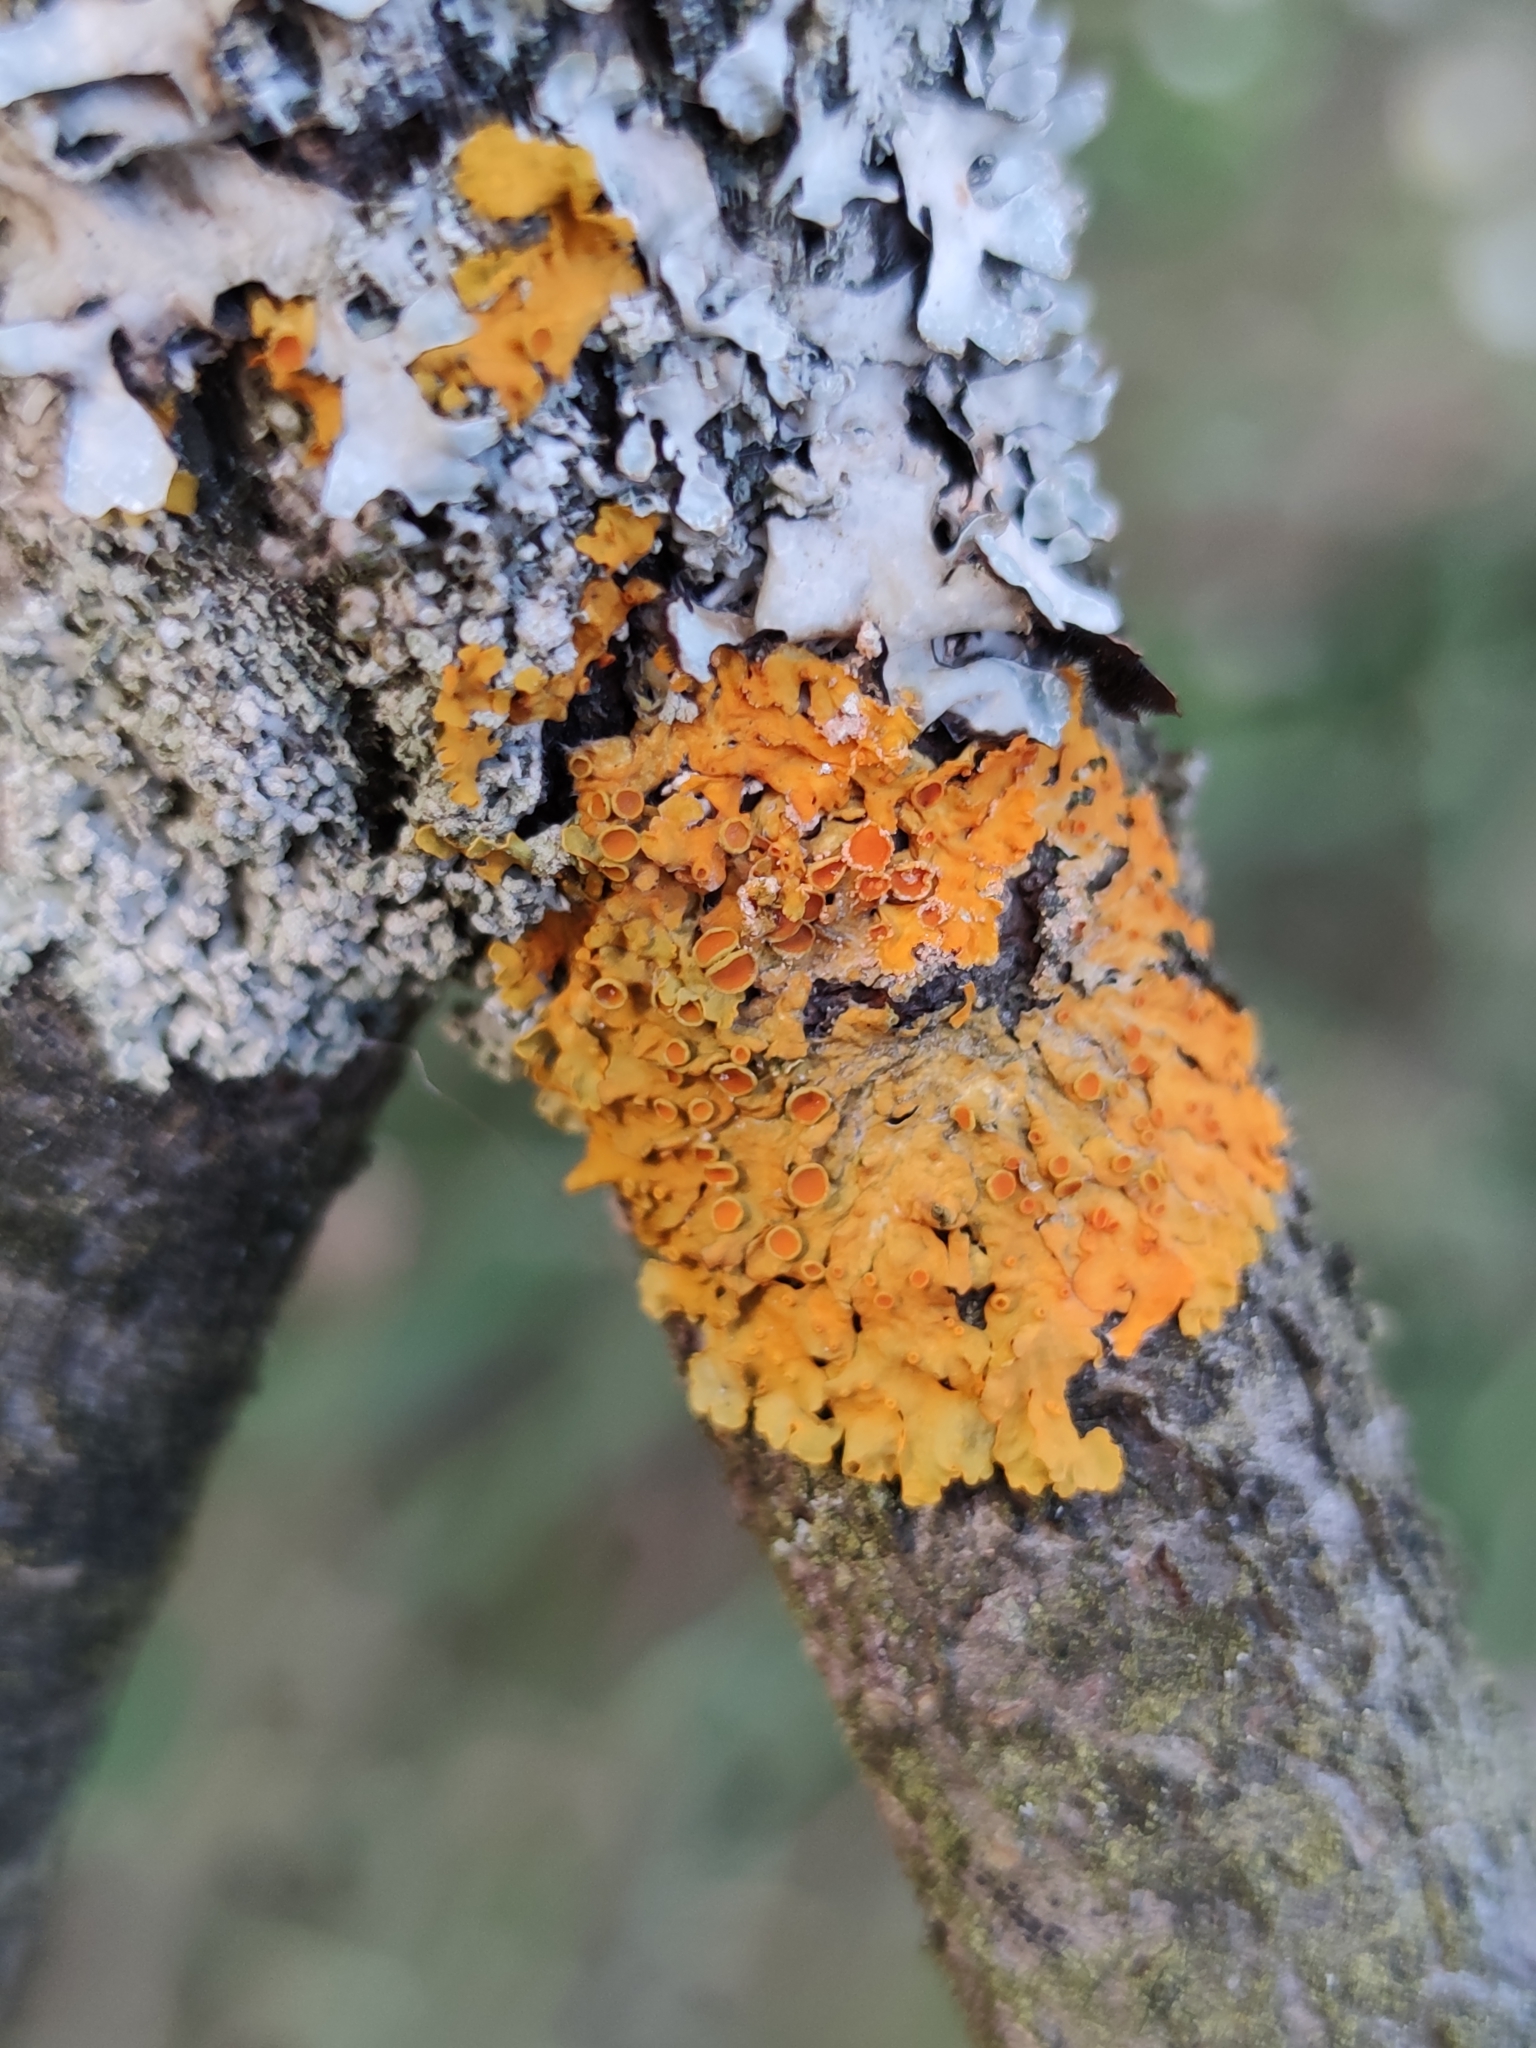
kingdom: Fungi
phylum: Ascomycota
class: Lecanoromycetes
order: Teloschistales
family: Teloschistaceae
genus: Xanthoria
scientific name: Xanthoria parietina
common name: Common orange lichen
